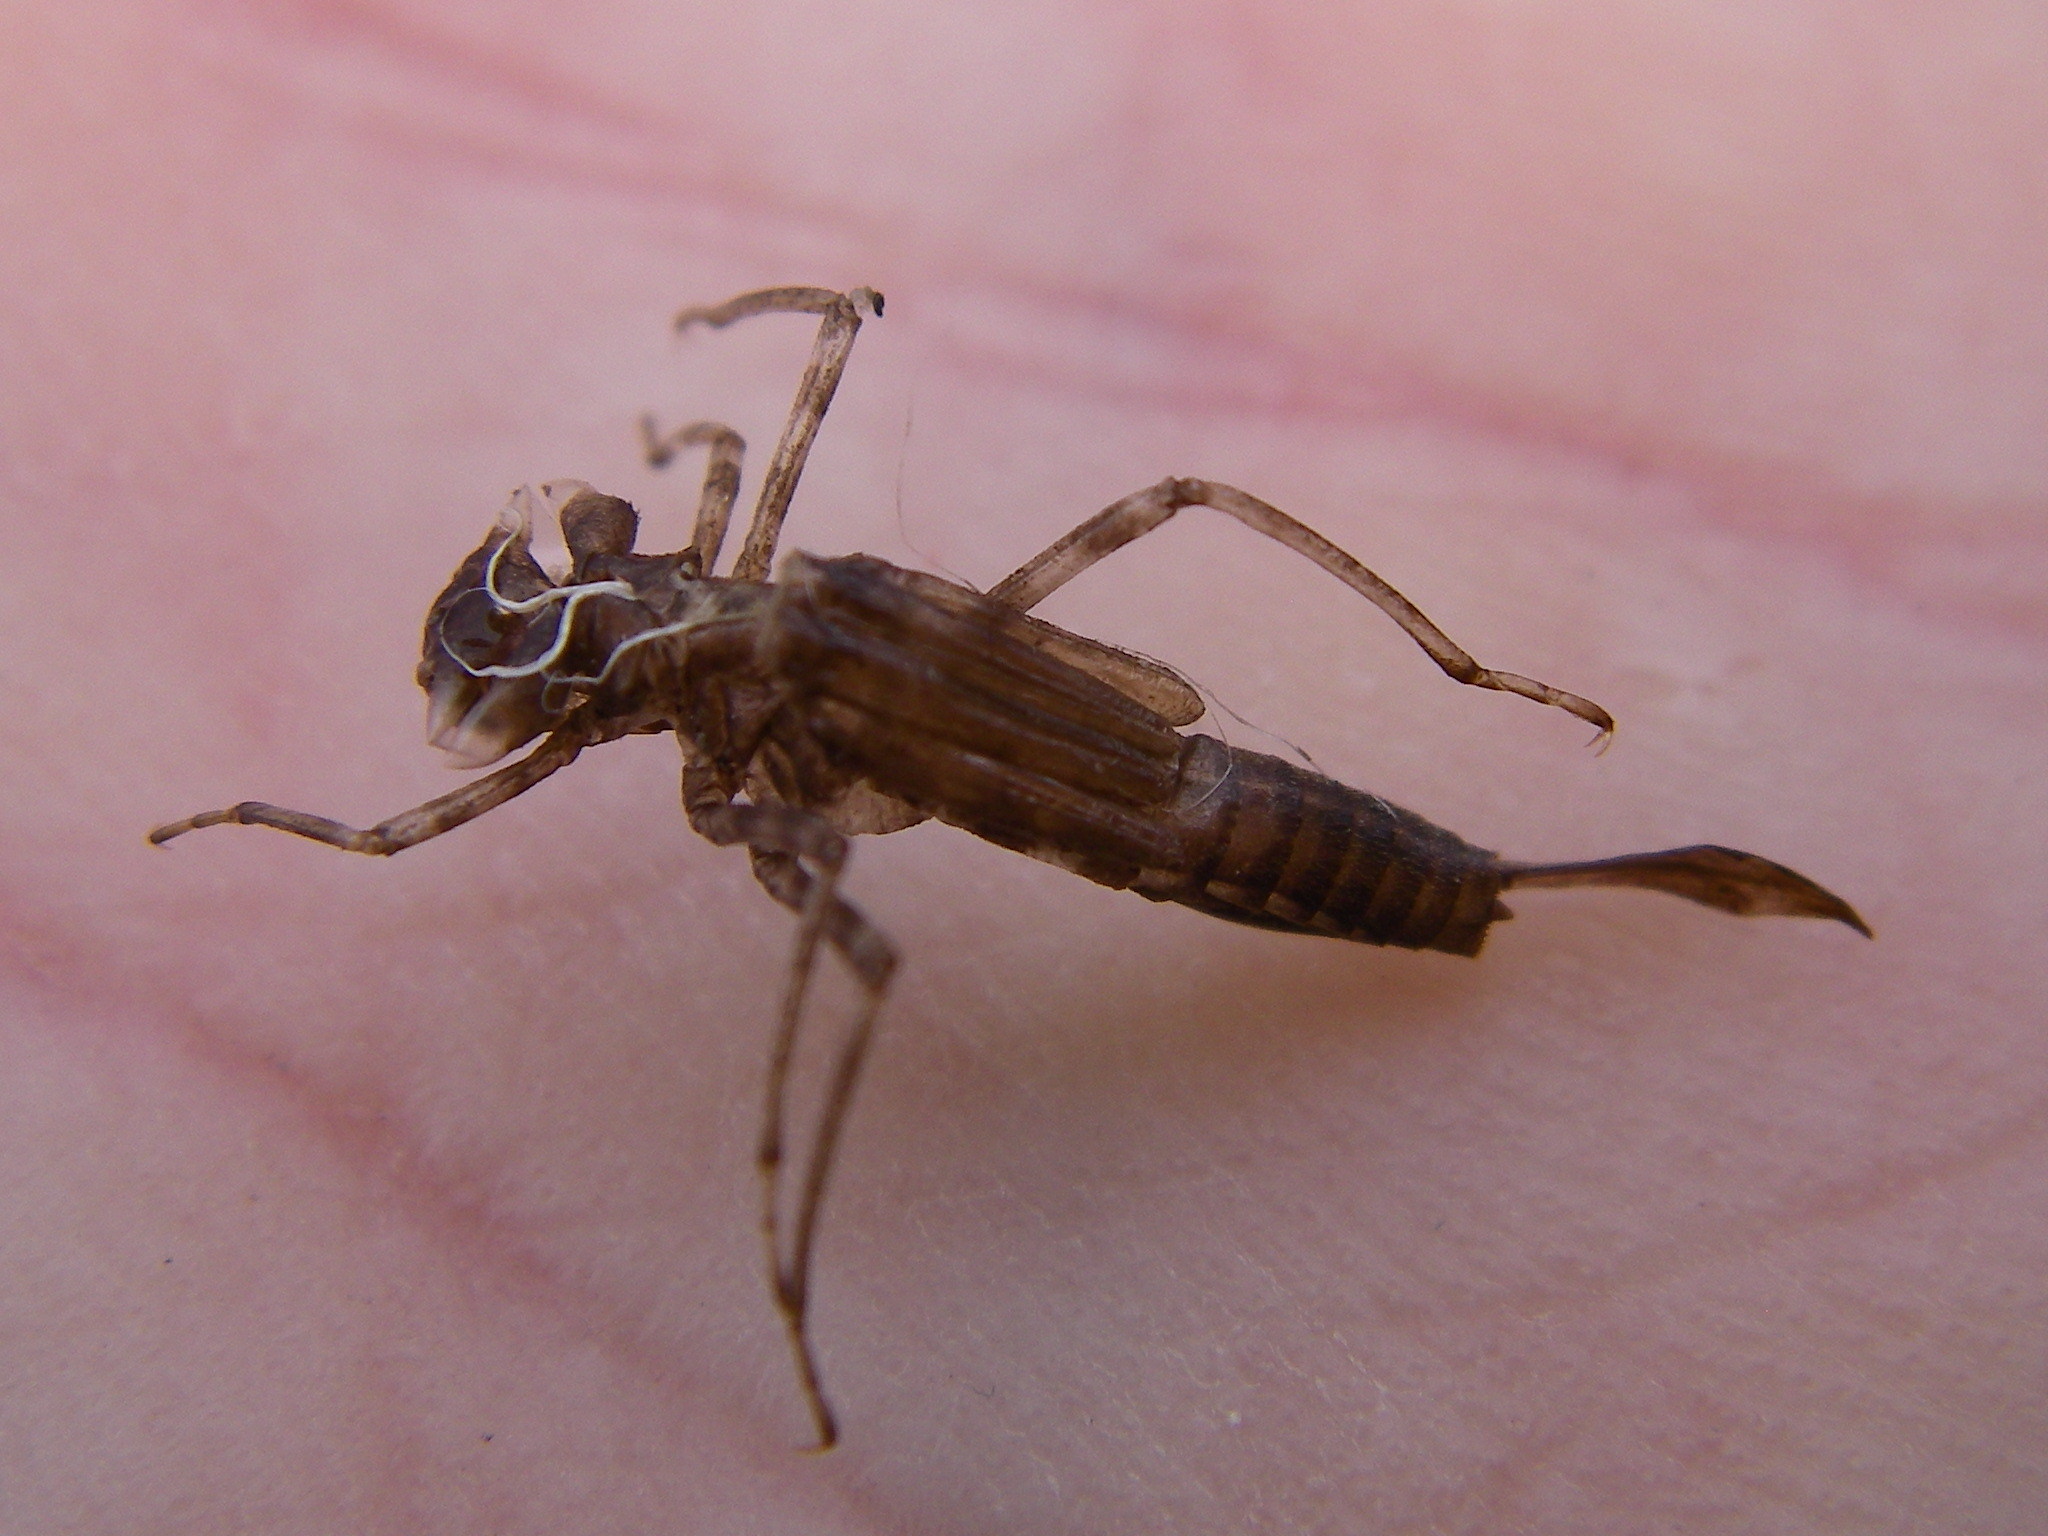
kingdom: Animalia
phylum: Arthropoda
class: Insecta
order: Odonata
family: Coenagrionidae
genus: Pyrrhosoma
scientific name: Pyrrhosoma nymphula
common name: Large red damsel
